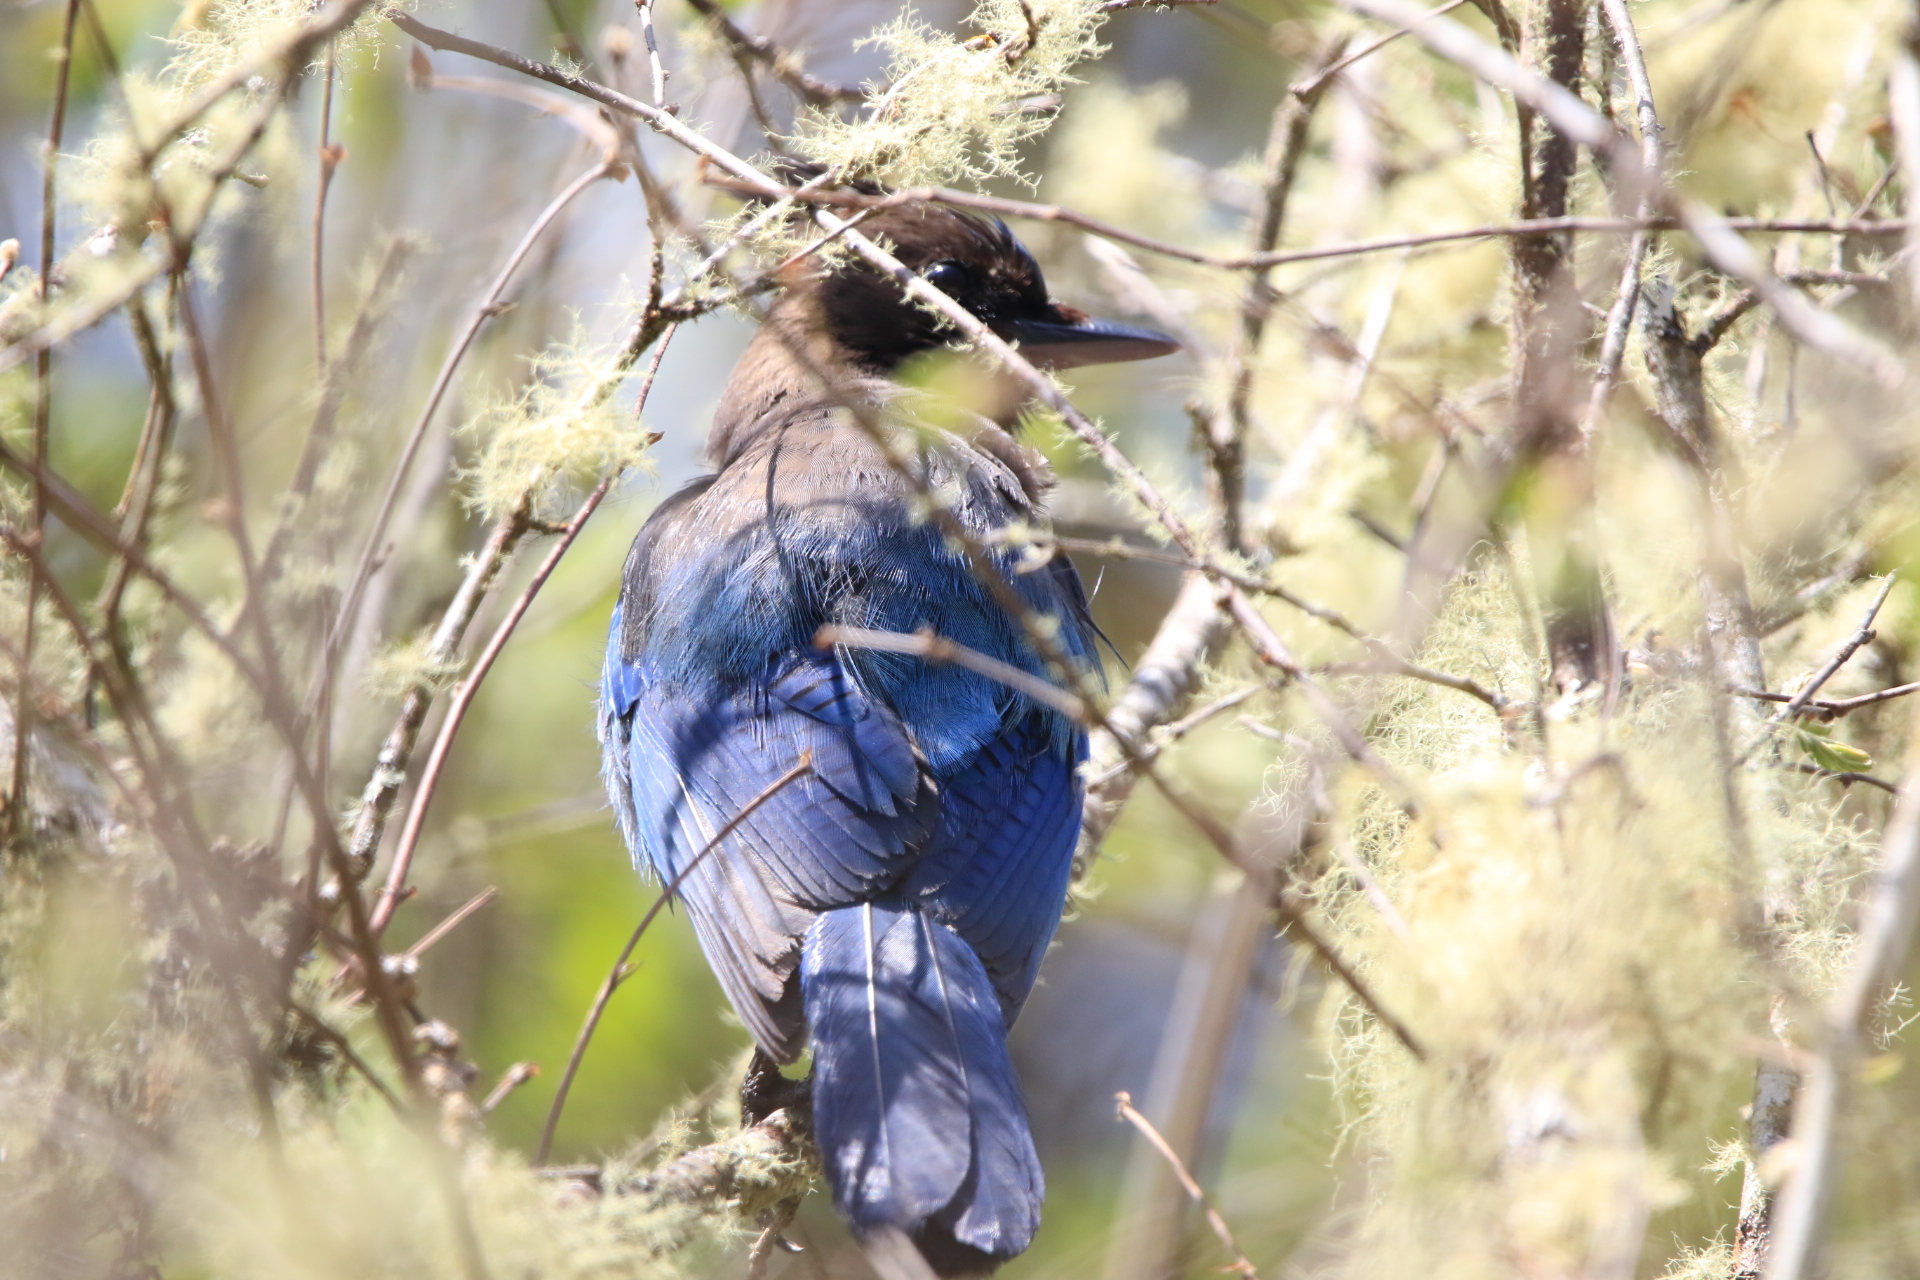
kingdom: Animalia
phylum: Chordata
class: Aves
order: Passeriformes
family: Corvidae
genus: Cyanocitta
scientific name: Cyanocitta stelleri
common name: Steller's jay
